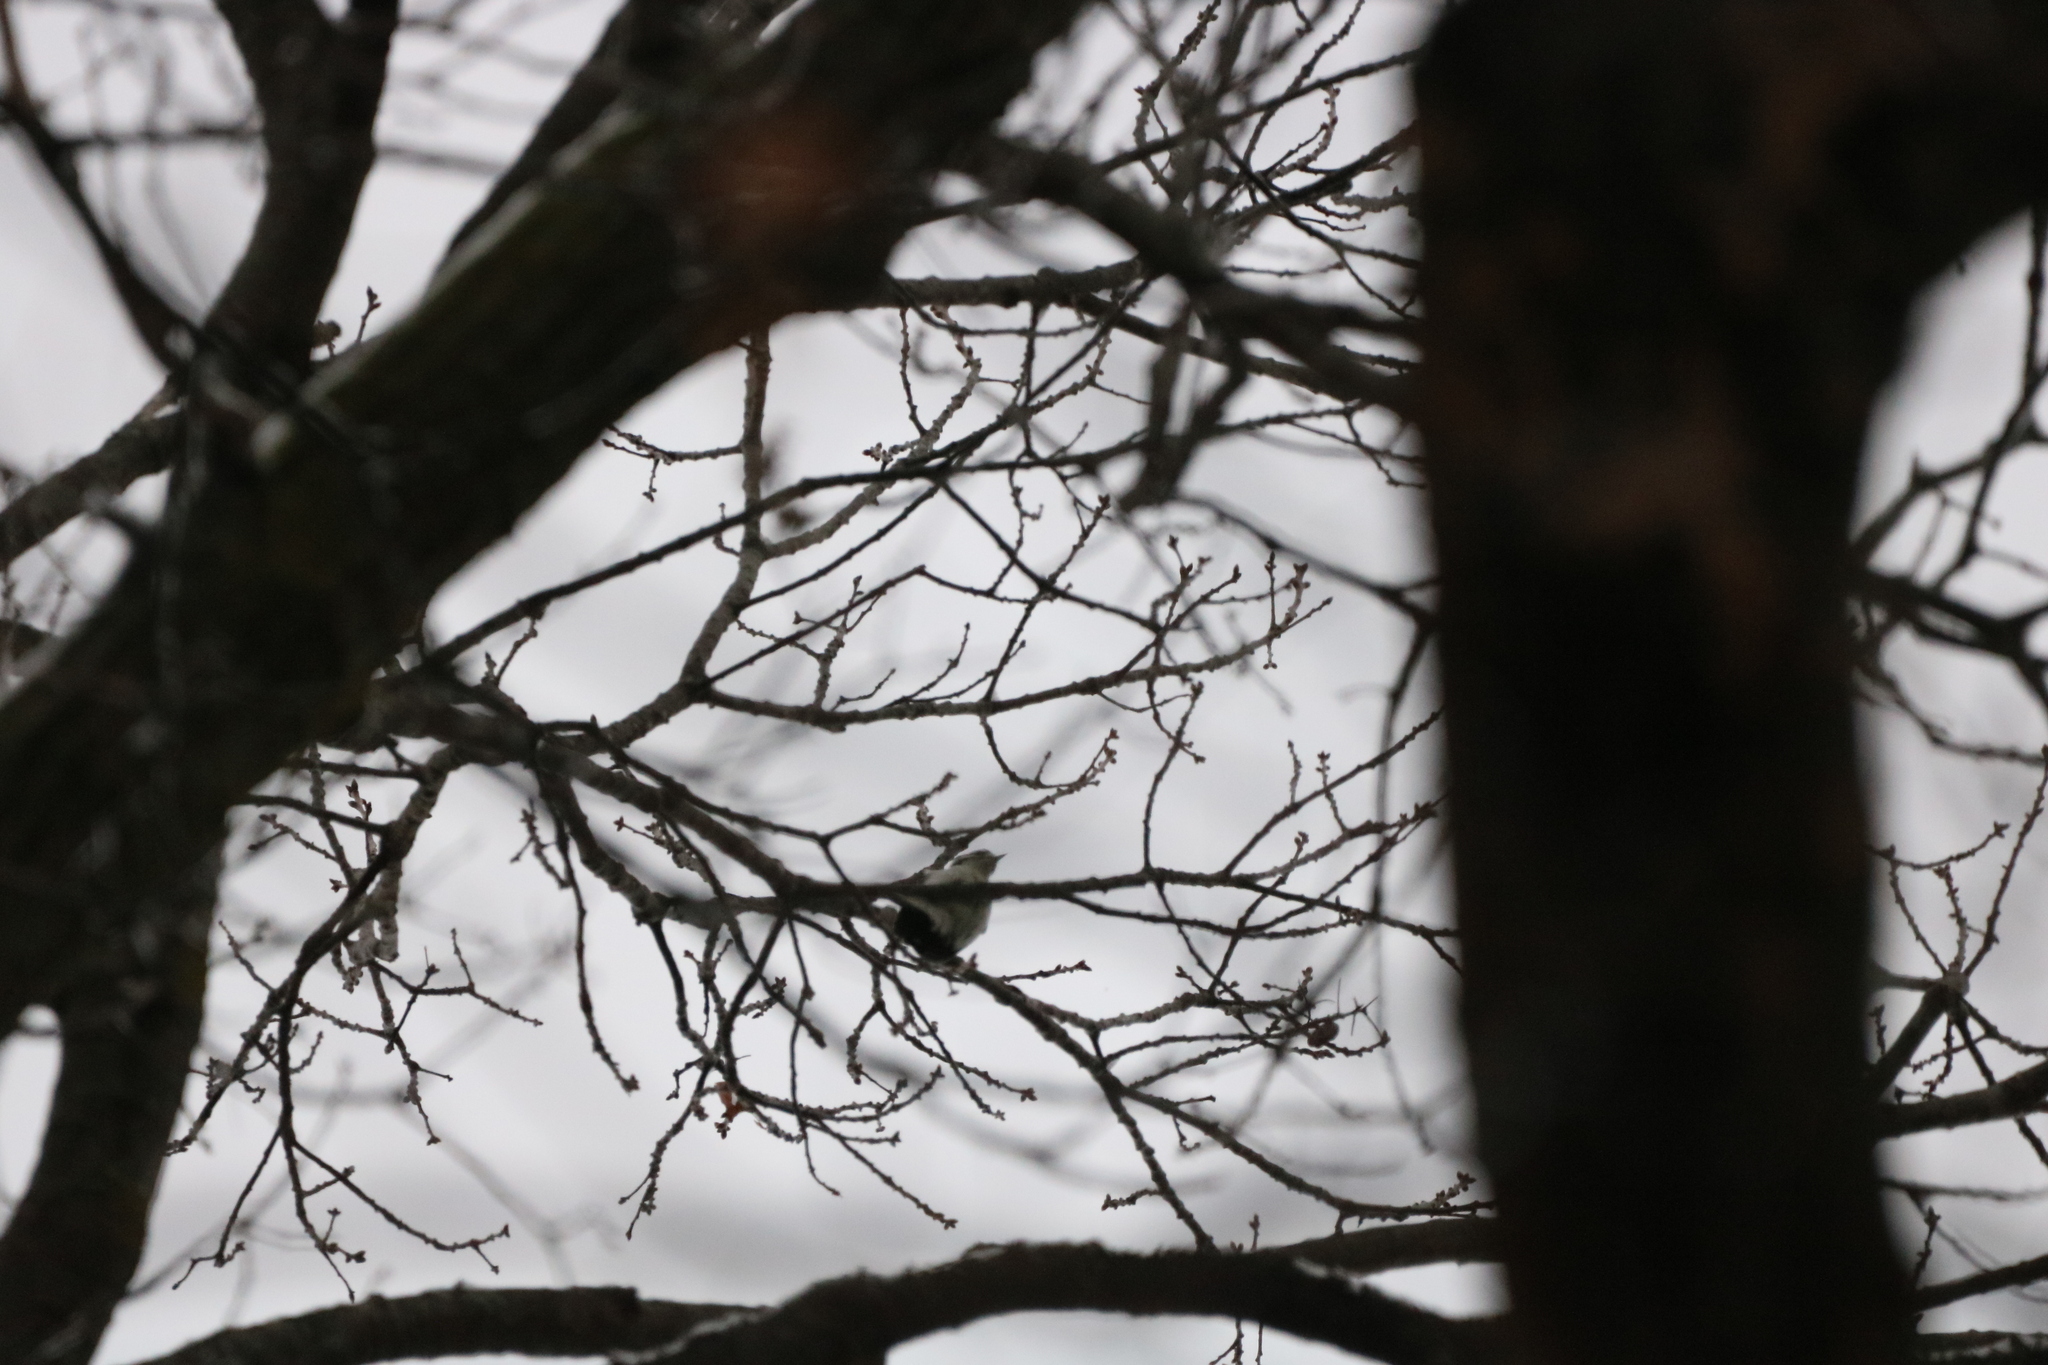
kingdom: Animalia
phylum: Chordata
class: Aves
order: Piciformes
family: Picidae
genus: Dryobates
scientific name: Dryobates pubescens
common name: Downy woodpecker
